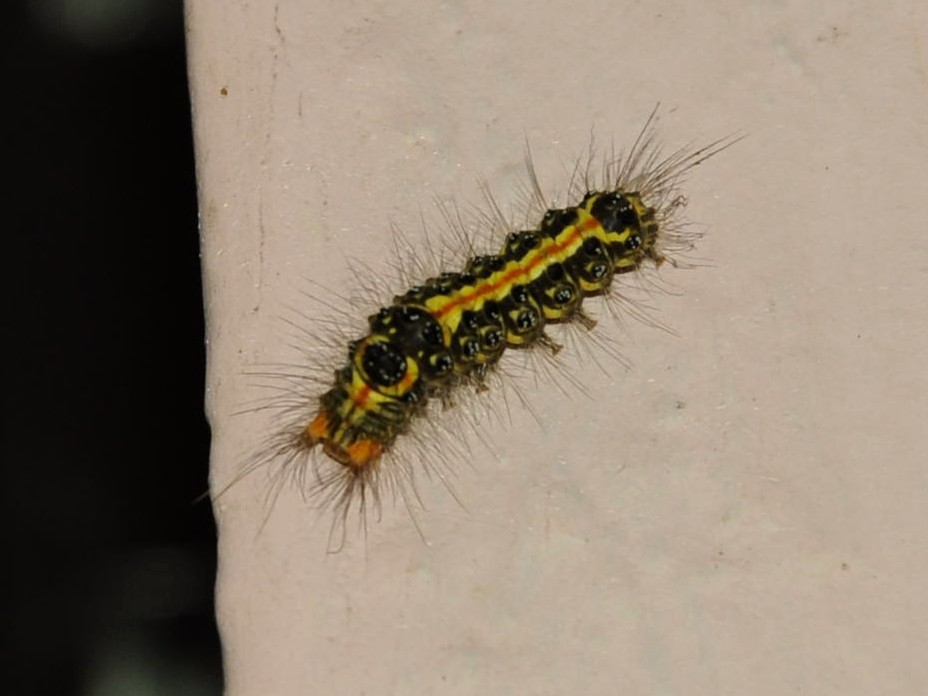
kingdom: Animalia
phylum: Arthropoda
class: Insecta
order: Lepidoptera
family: Erebidae
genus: Orvasca
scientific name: Orvasca subnotata
